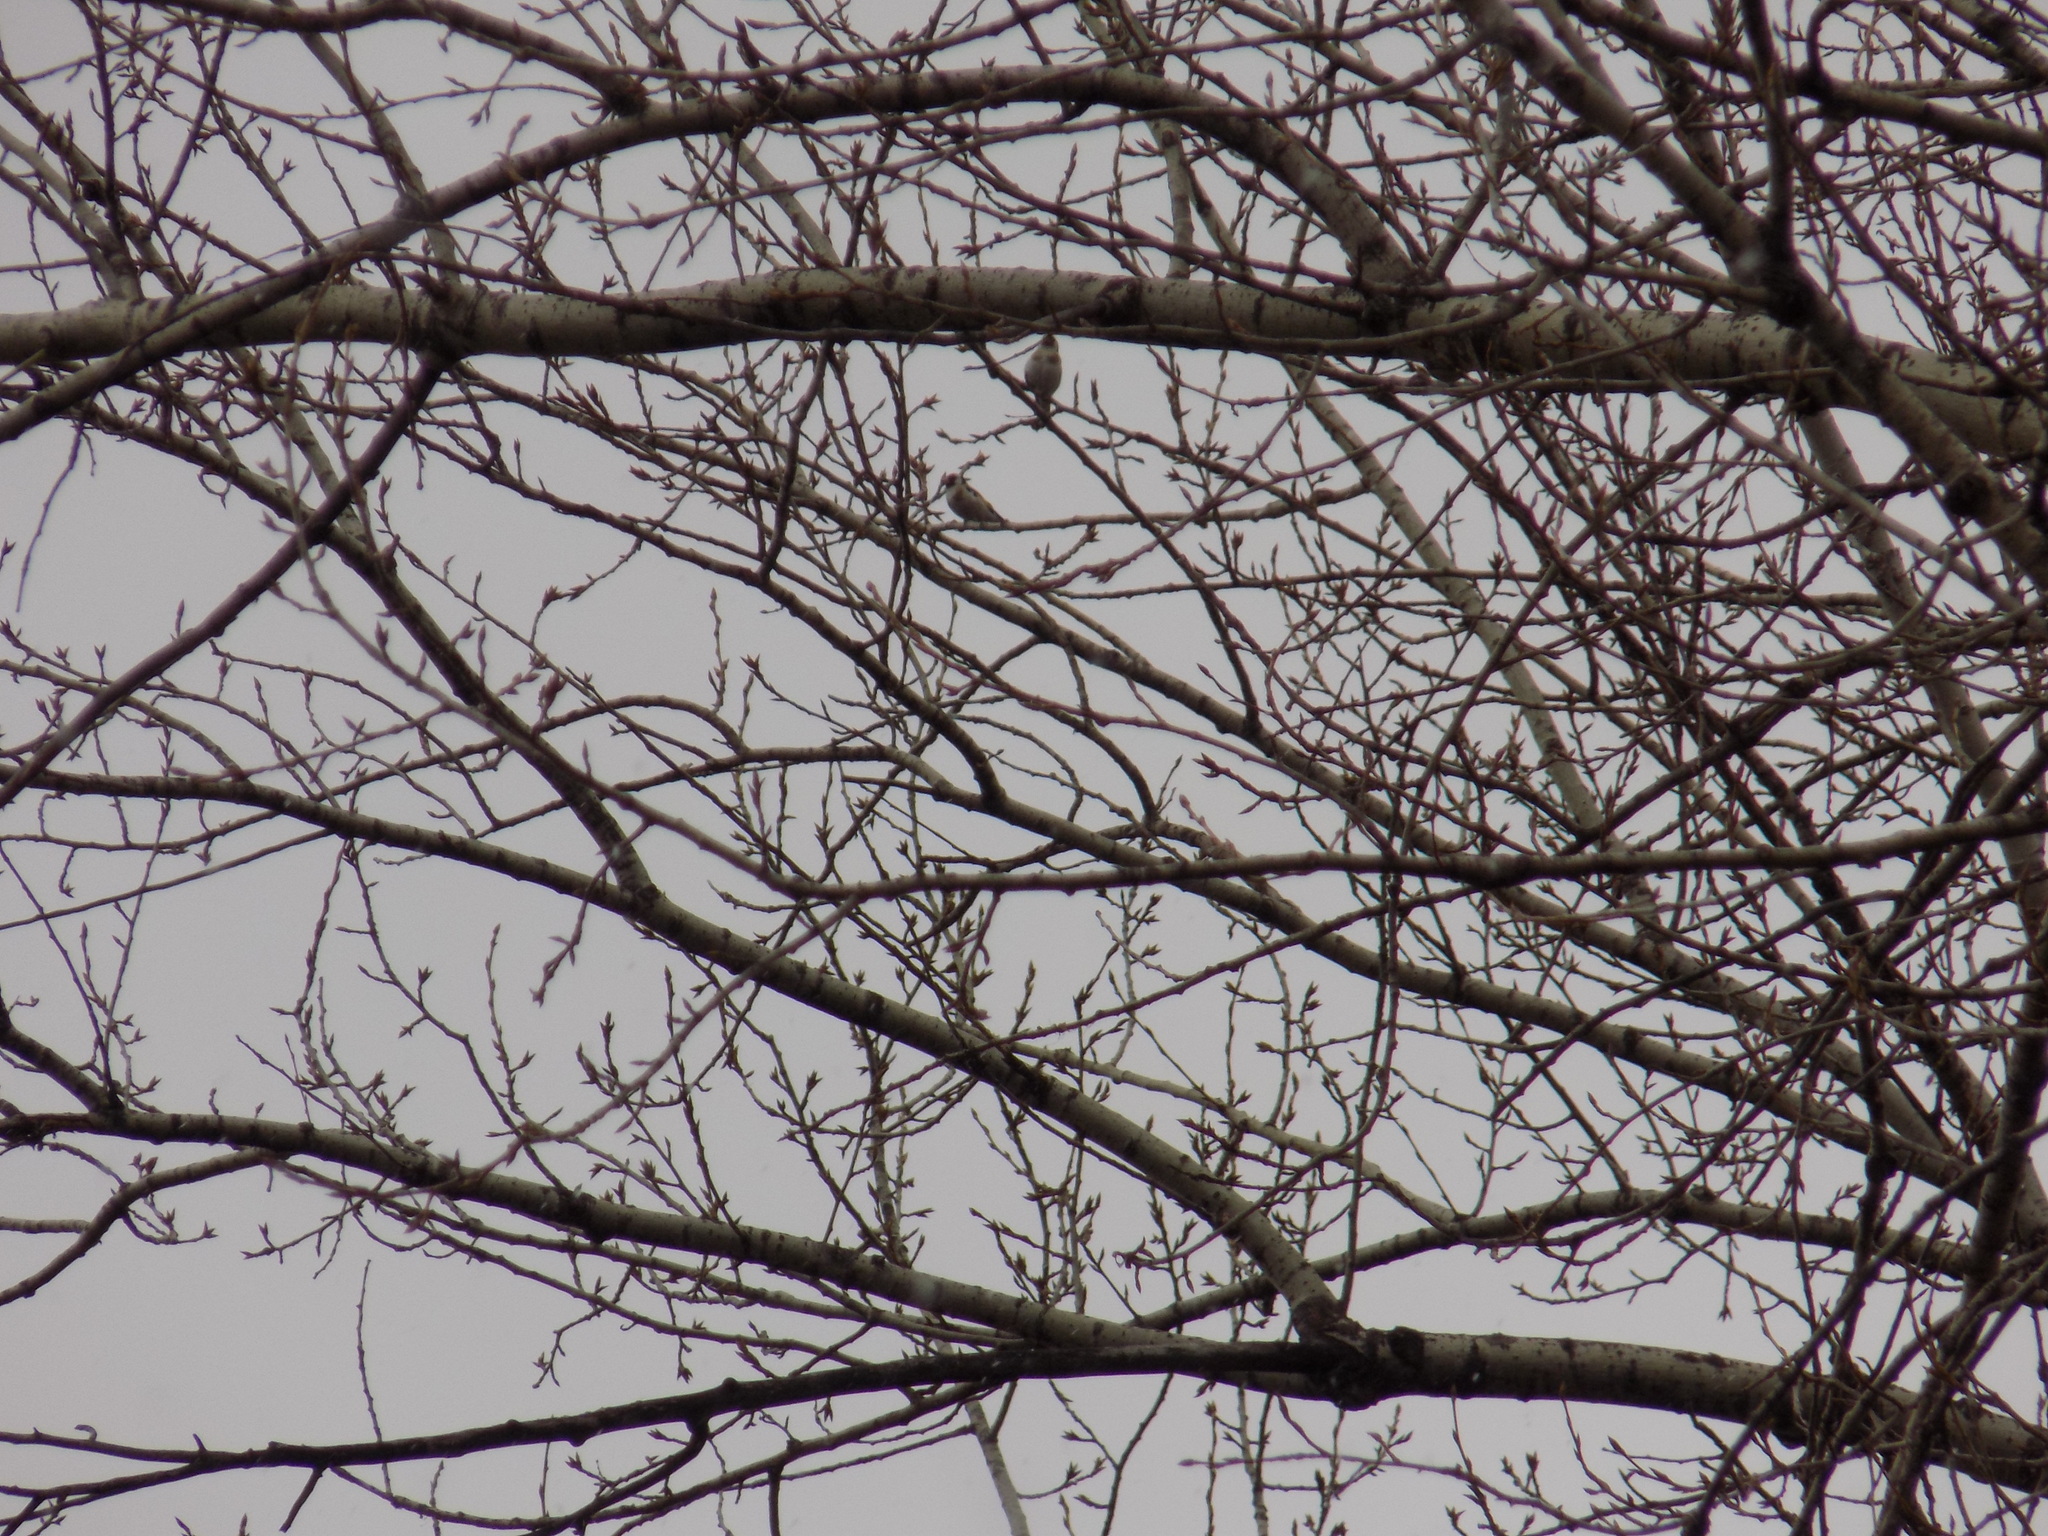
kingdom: Animalia
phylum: Chordata
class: Aves
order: Passeriformes
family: Fringillidae
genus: Carduelis
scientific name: Carduelis carduelis
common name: European goldfinch
